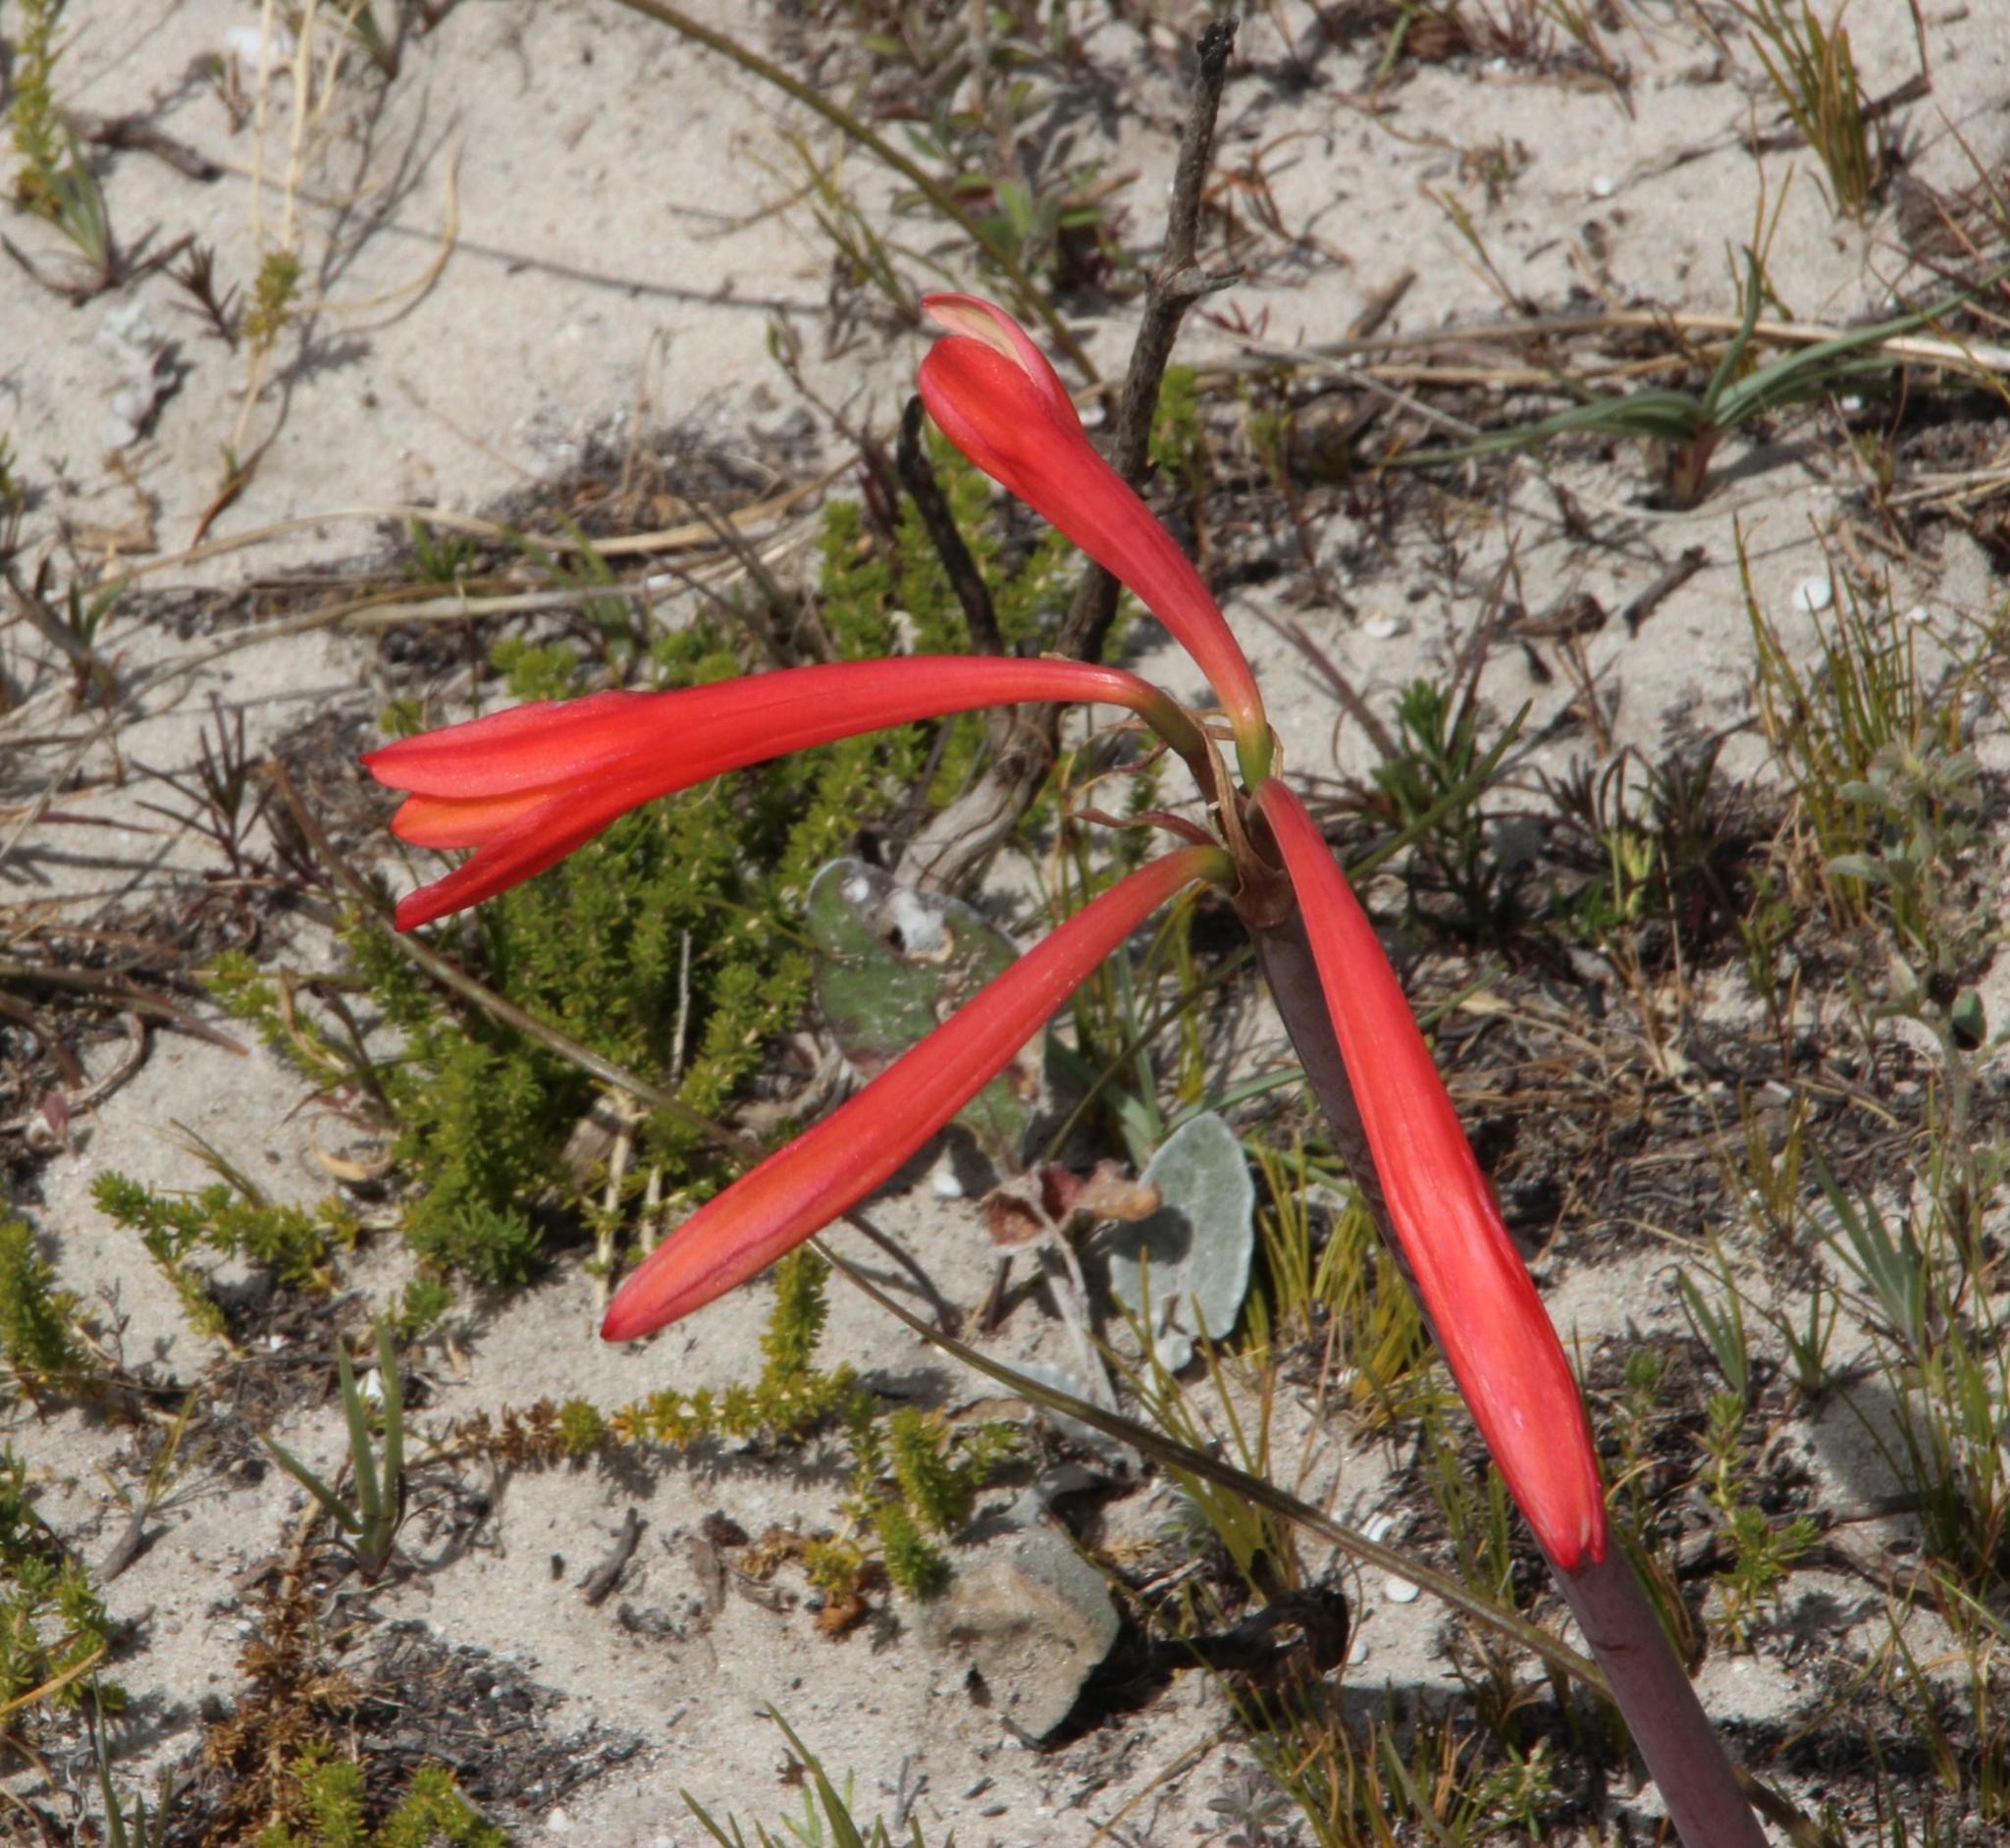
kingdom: Plantae
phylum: Tracheophyta
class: Liliopsida
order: Asparagales
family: Amaryllidaceae
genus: Cyrtanthus
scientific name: Cyrtanthus fergusoniae
